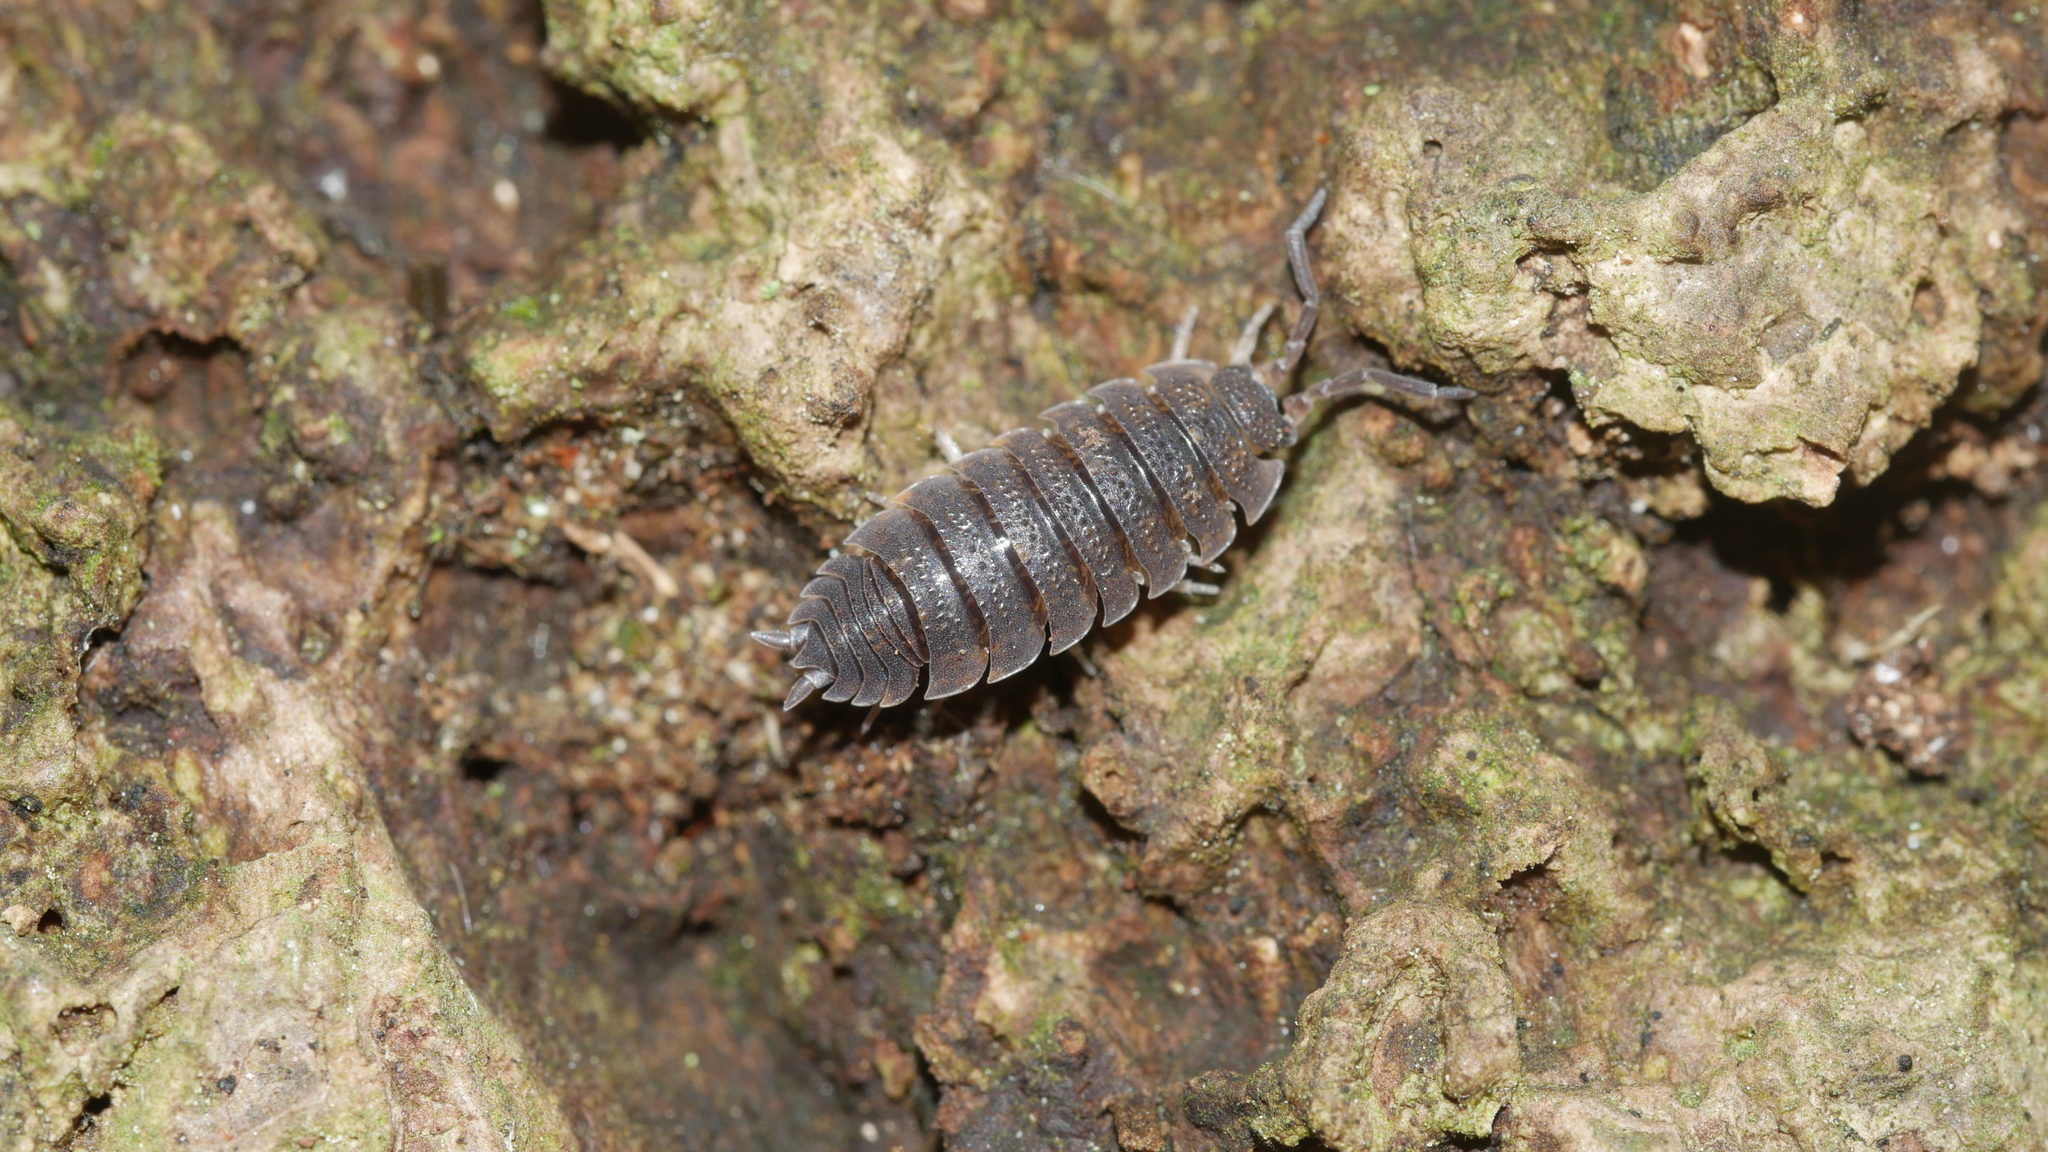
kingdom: Animalia
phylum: Arthropoda
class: Malacostraca
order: Isopoda
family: Porcellionidae
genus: Porcellio
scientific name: Porcellio scaber
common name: Common rough woodlouse
